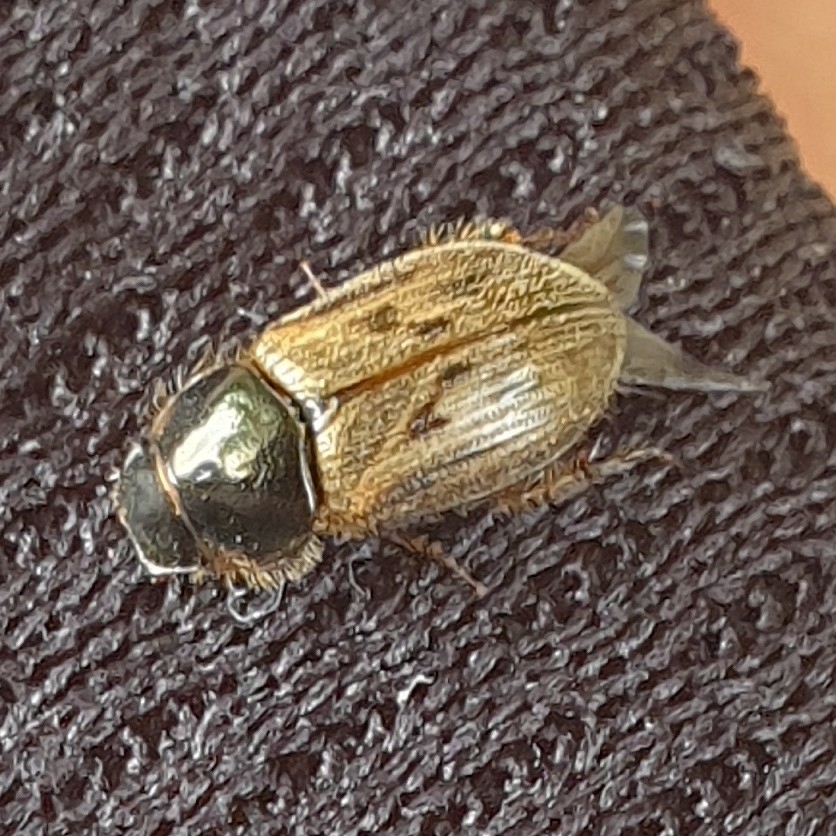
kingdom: Animalia
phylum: Arthropoda
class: Insecta
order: Coleoptera
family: Scarabaeidae
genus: Nimbus
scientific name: Nimbus contaminatus
